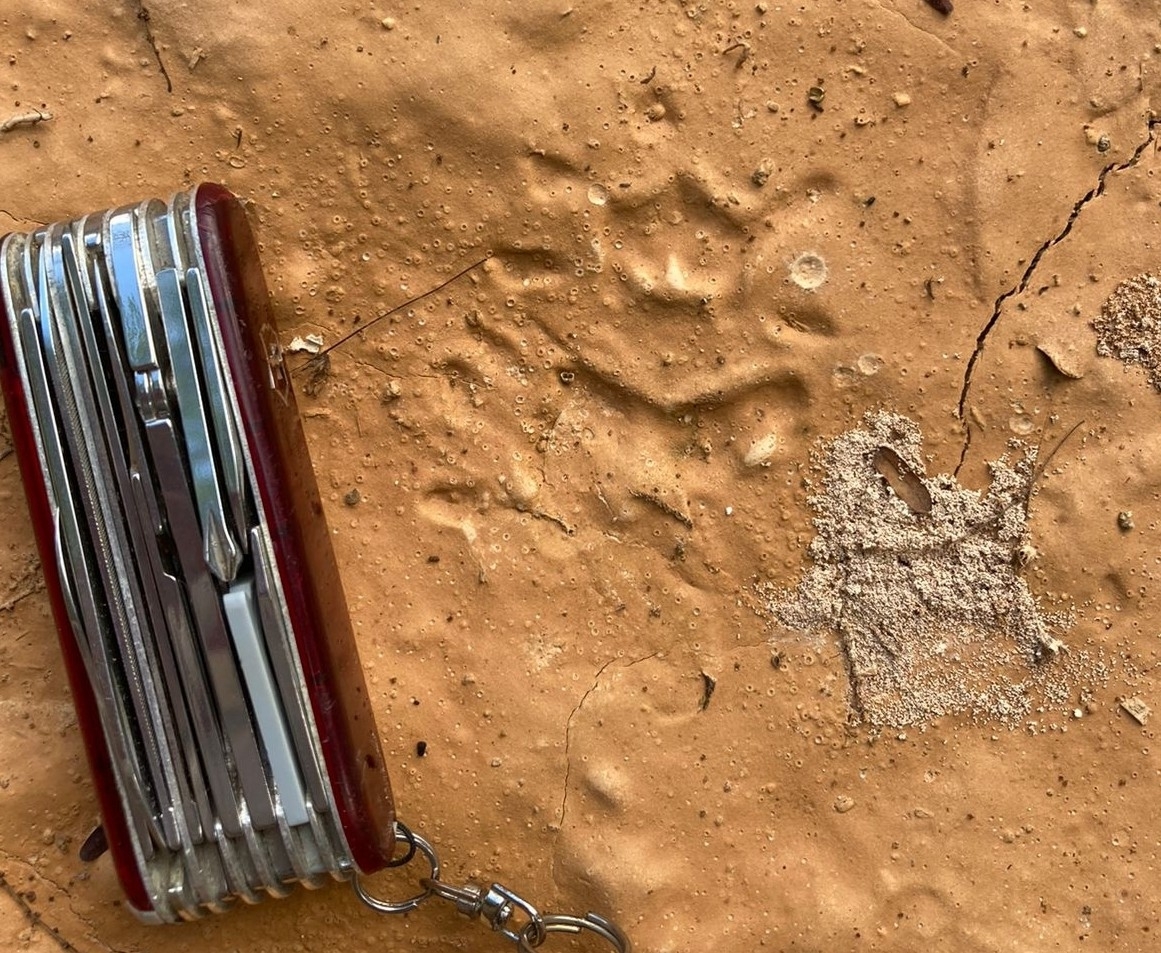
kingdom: Animalia
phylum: Chordata
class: Mammalia
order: Didelphimorphia
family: Didelphidae
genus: Didelphis
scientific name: Didelphis
